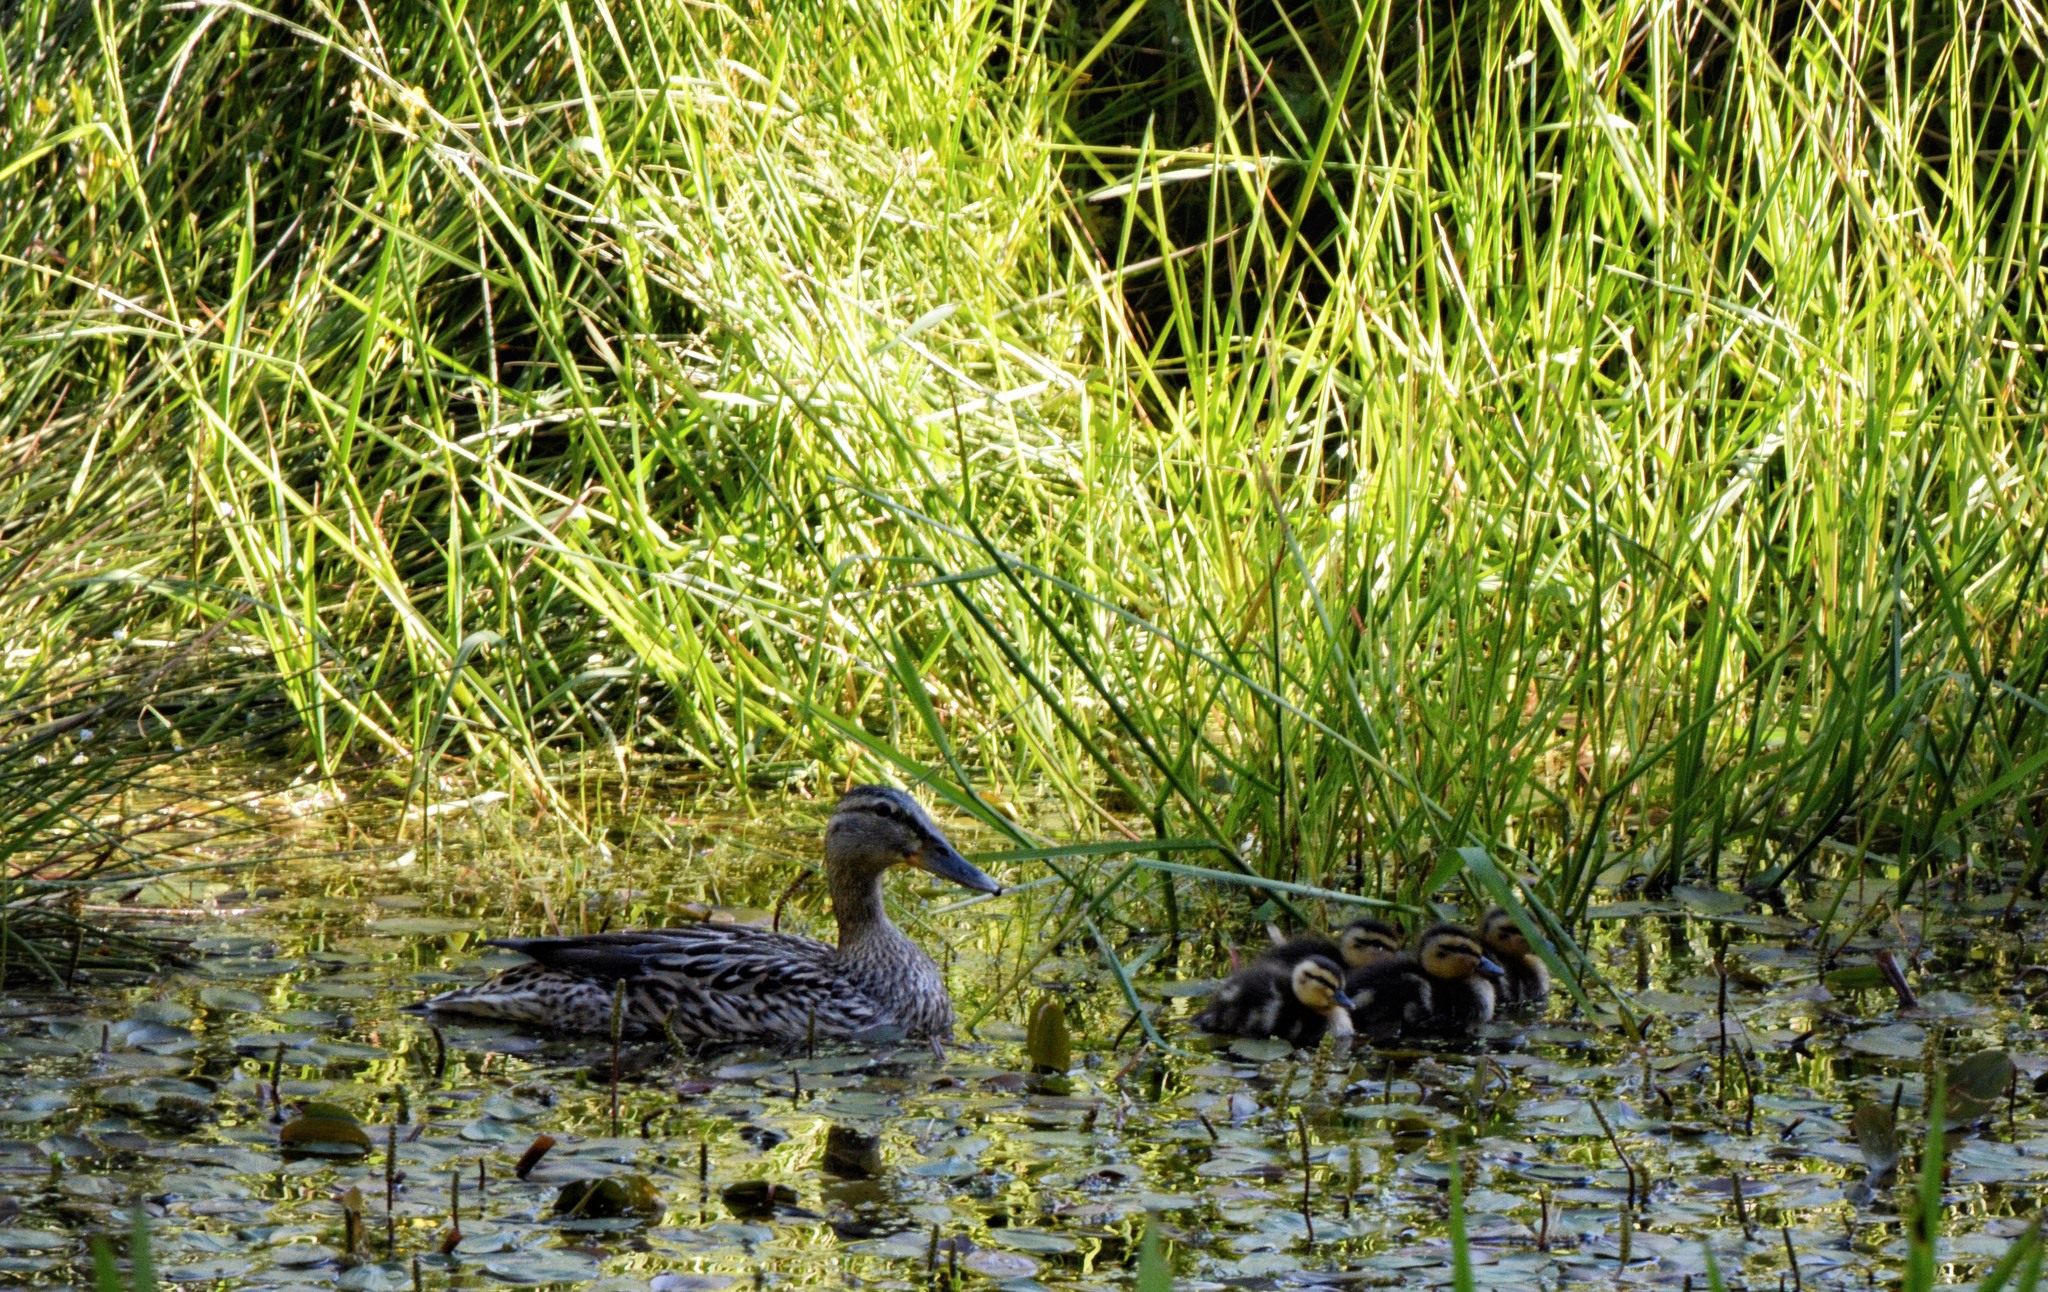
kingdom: Animalia
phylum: Chordata
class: Aves
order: Anseriformes
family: Anatidae
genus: Anas
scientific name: Anas platyrhynchos
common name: Mallard
